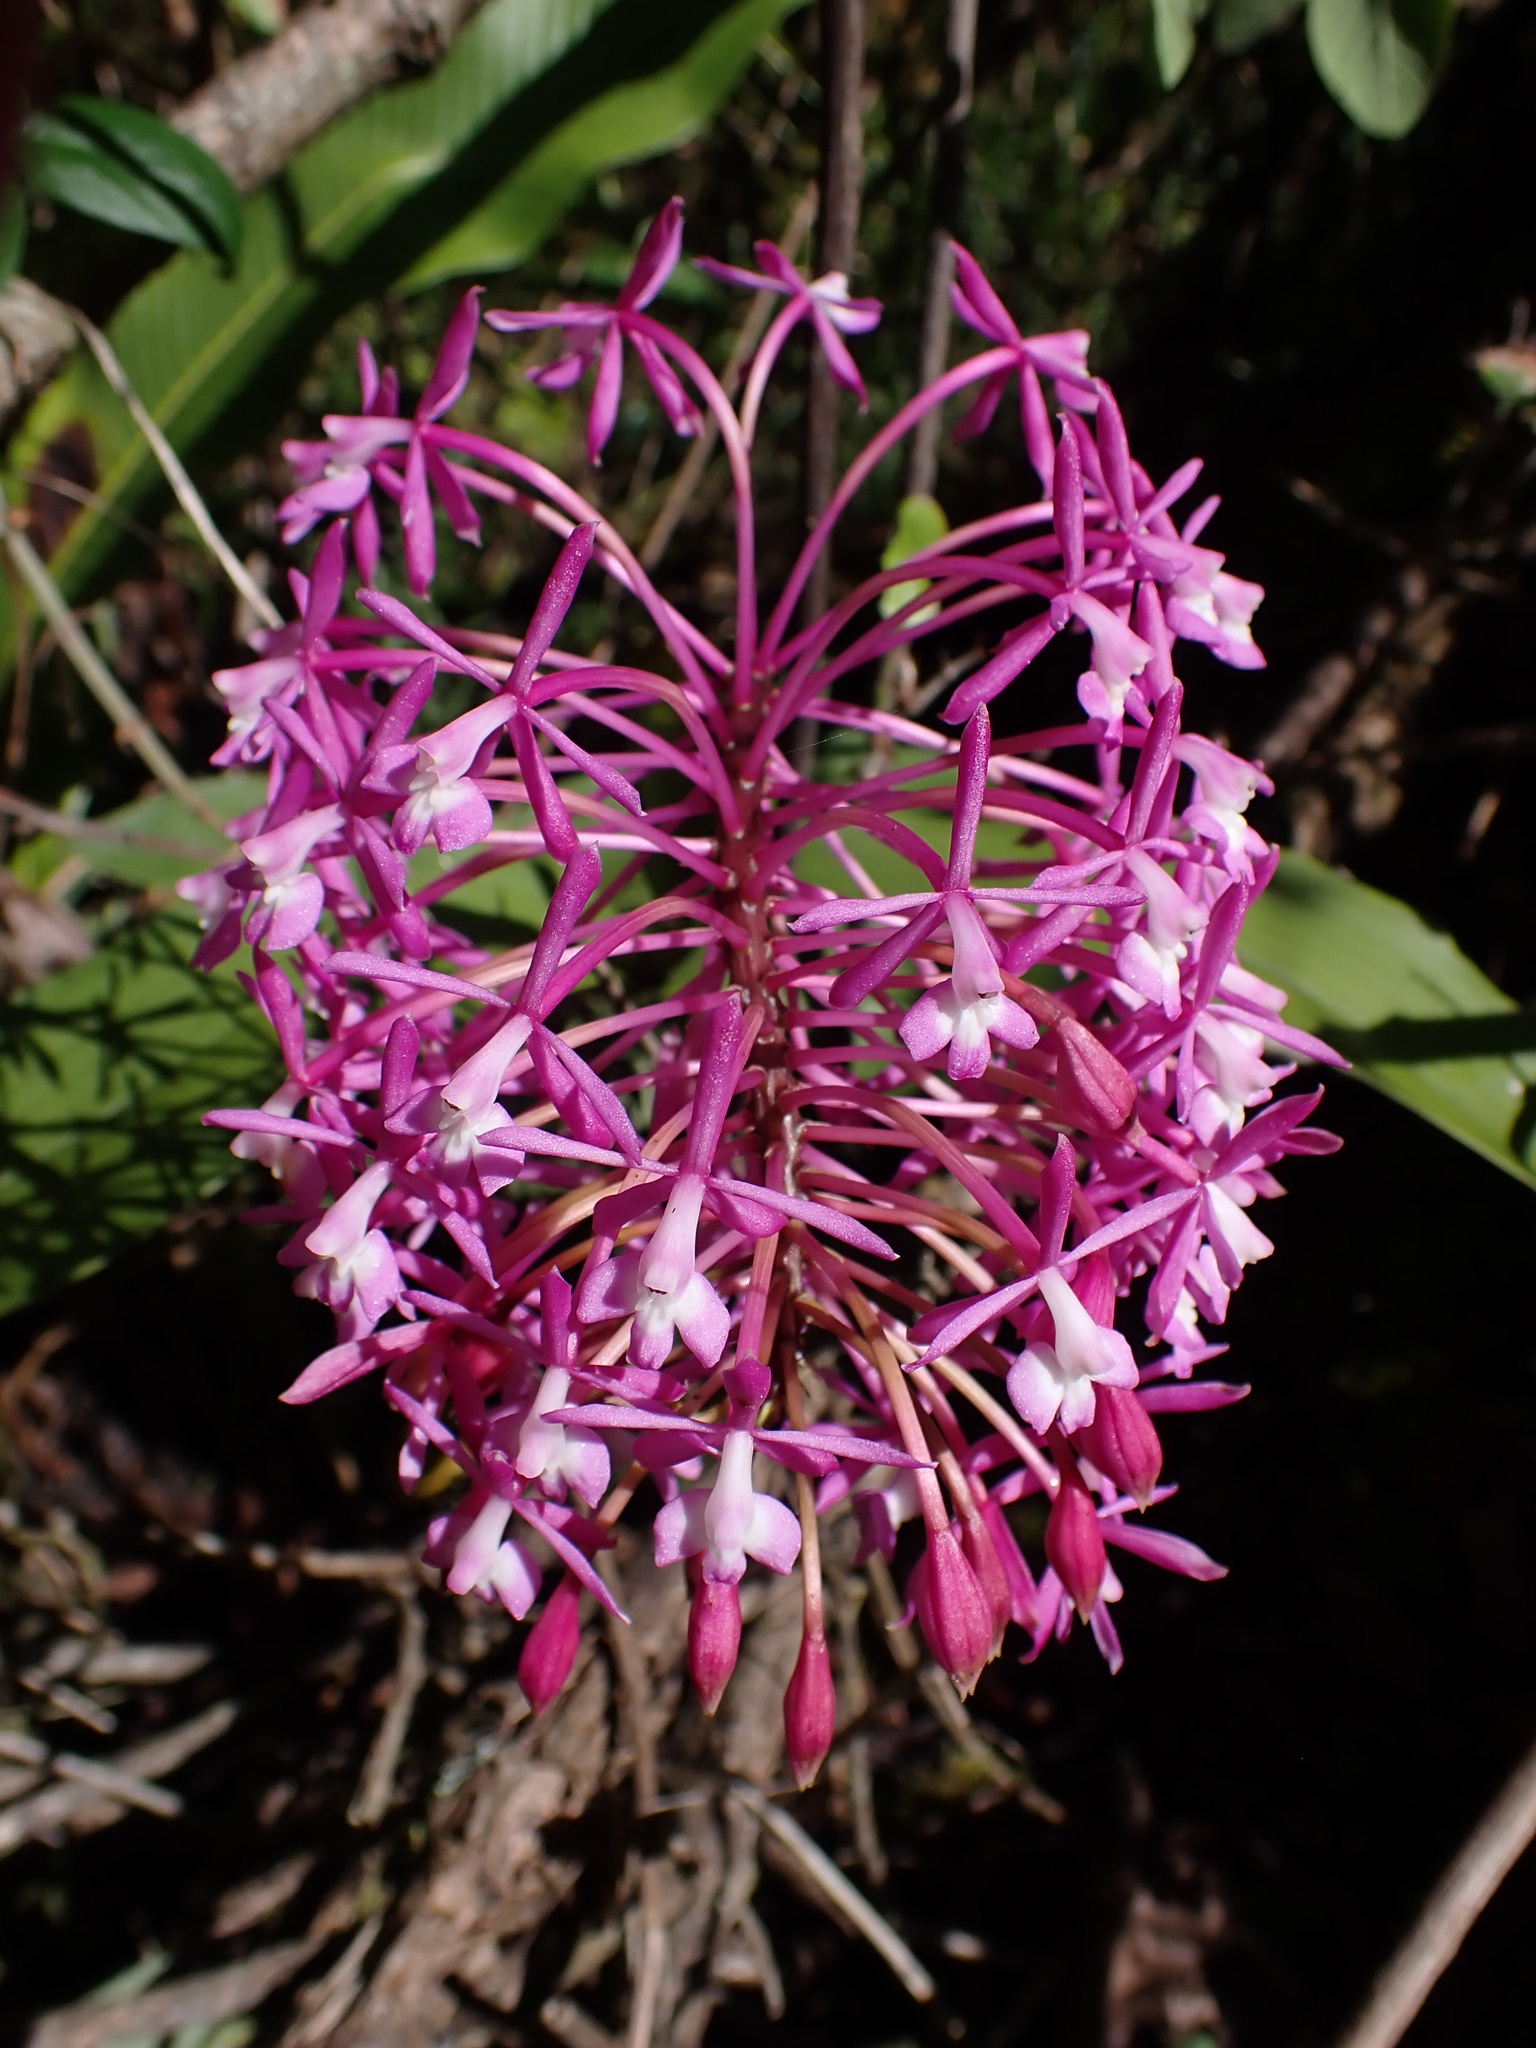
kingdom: Plantae
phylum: Tracheophyta
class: Liliopsida
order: Asparagales
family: Orchidaceae
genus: Epidendrum
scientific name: Epidendrum syringothyrsus
